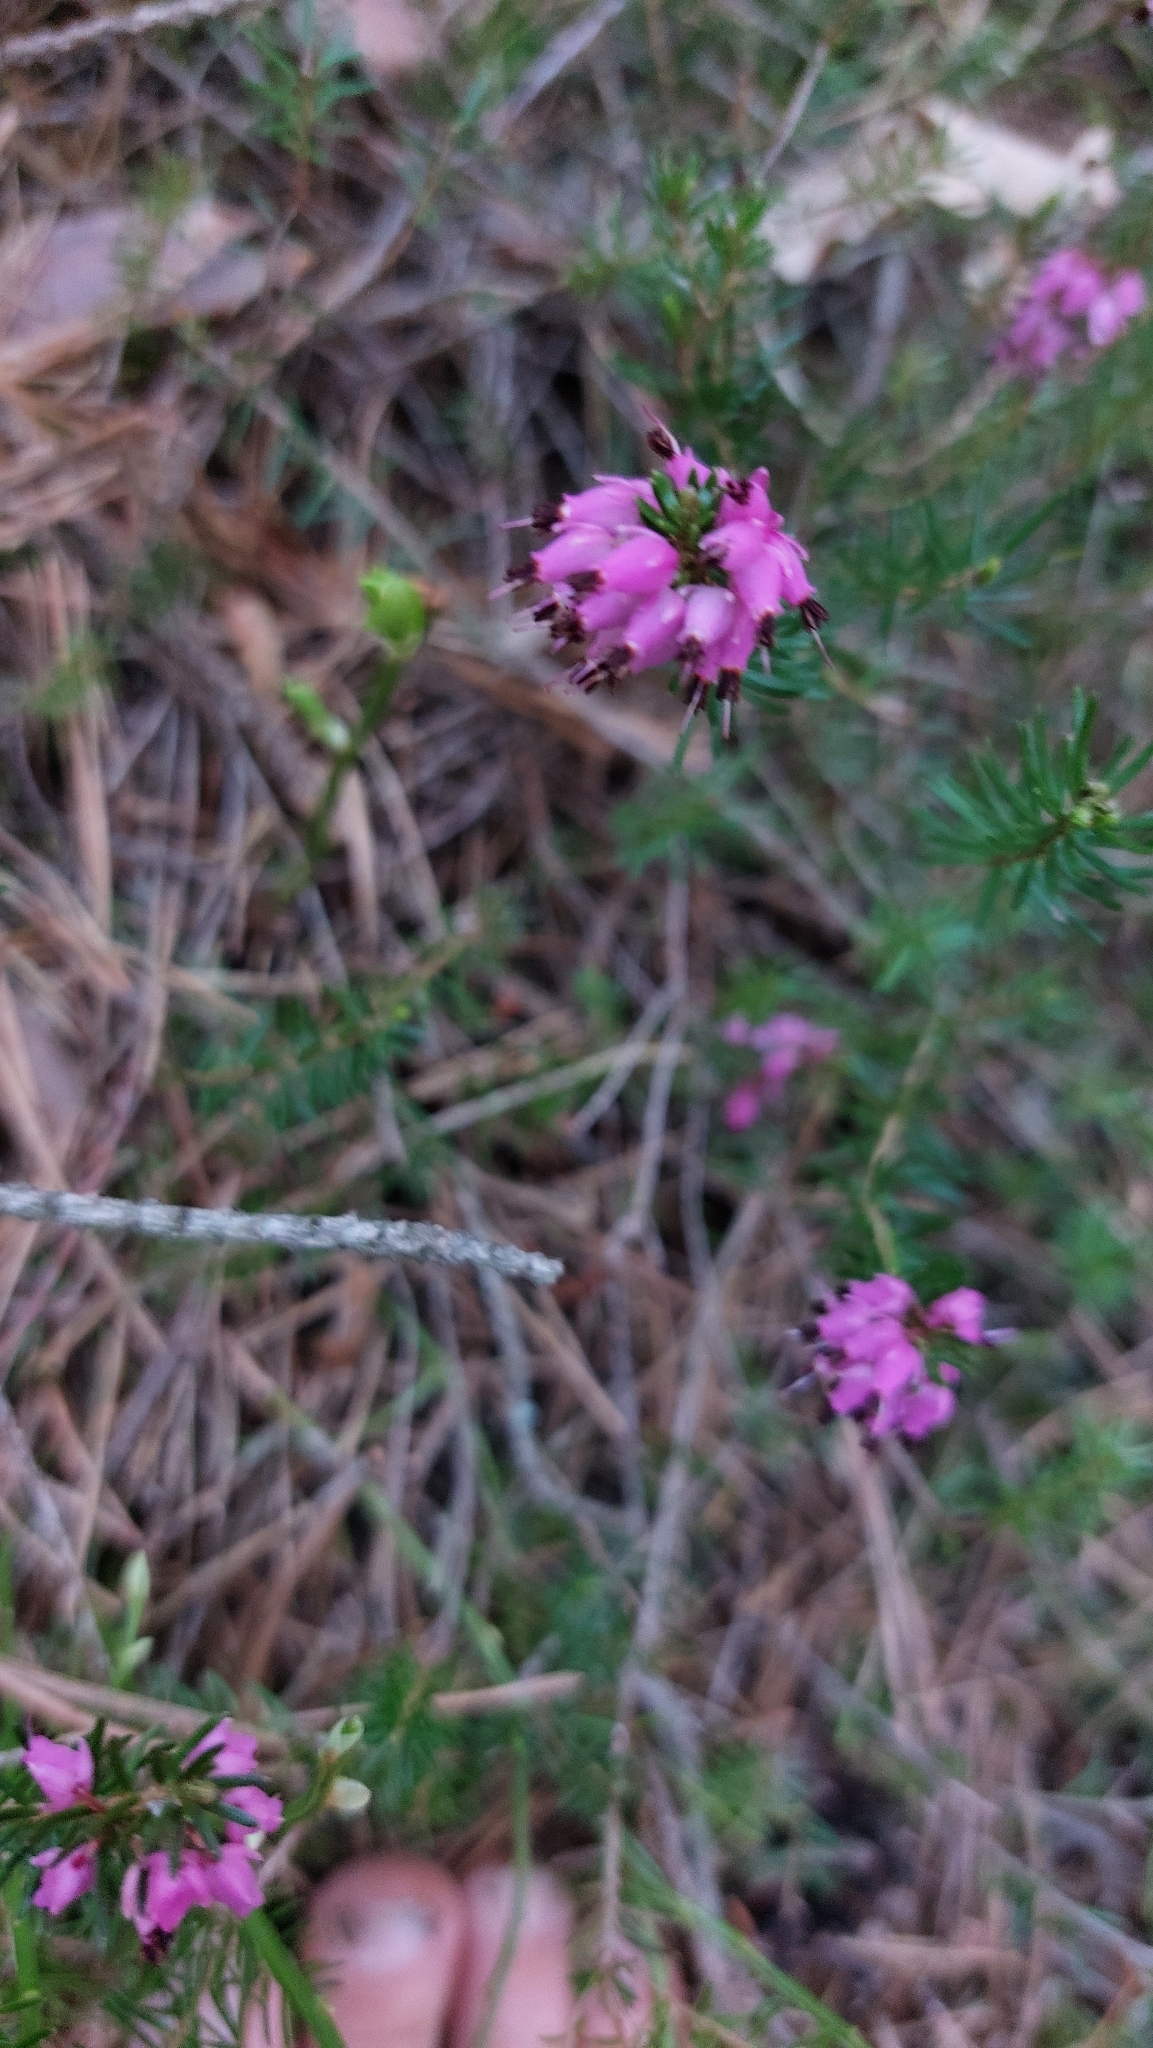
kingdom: Plantae
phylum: Tracheophyta
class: Magnoliopsida
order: Ericales
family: Ericaceae
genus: Erica
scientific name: Erica carnea
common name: Winter heath
